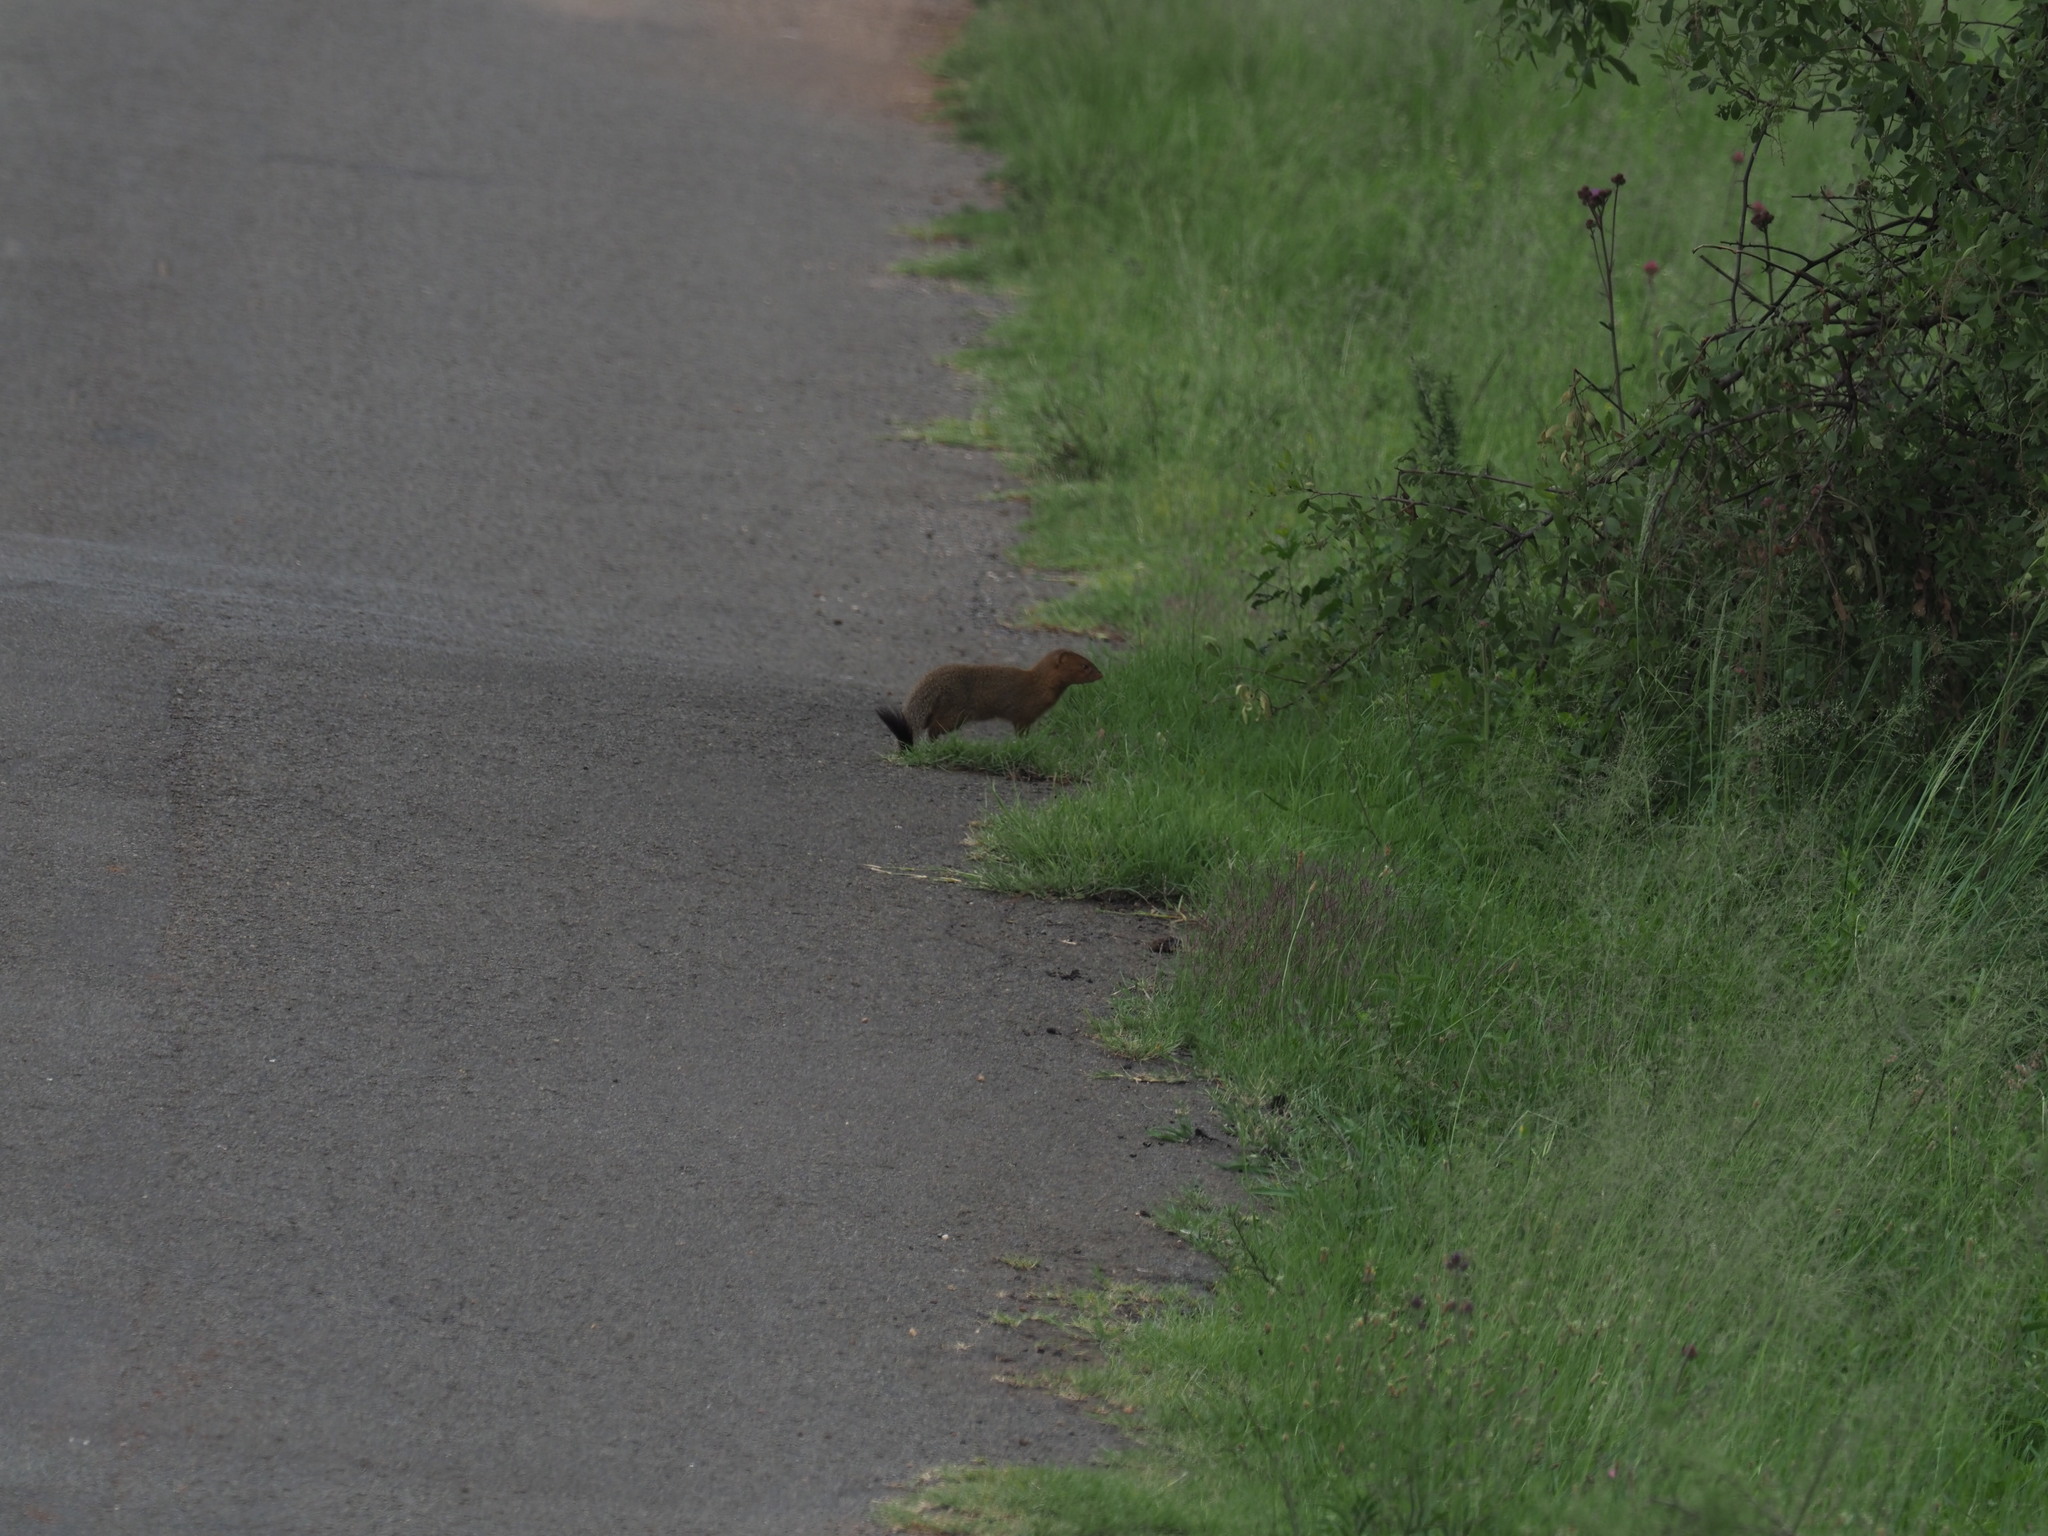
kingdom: Animalia
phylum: Chordata
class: Mammalia
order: Carnivora
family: Herpestidae
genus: Galerella
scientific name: Galerella sanguinea
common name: Slender mongoose
